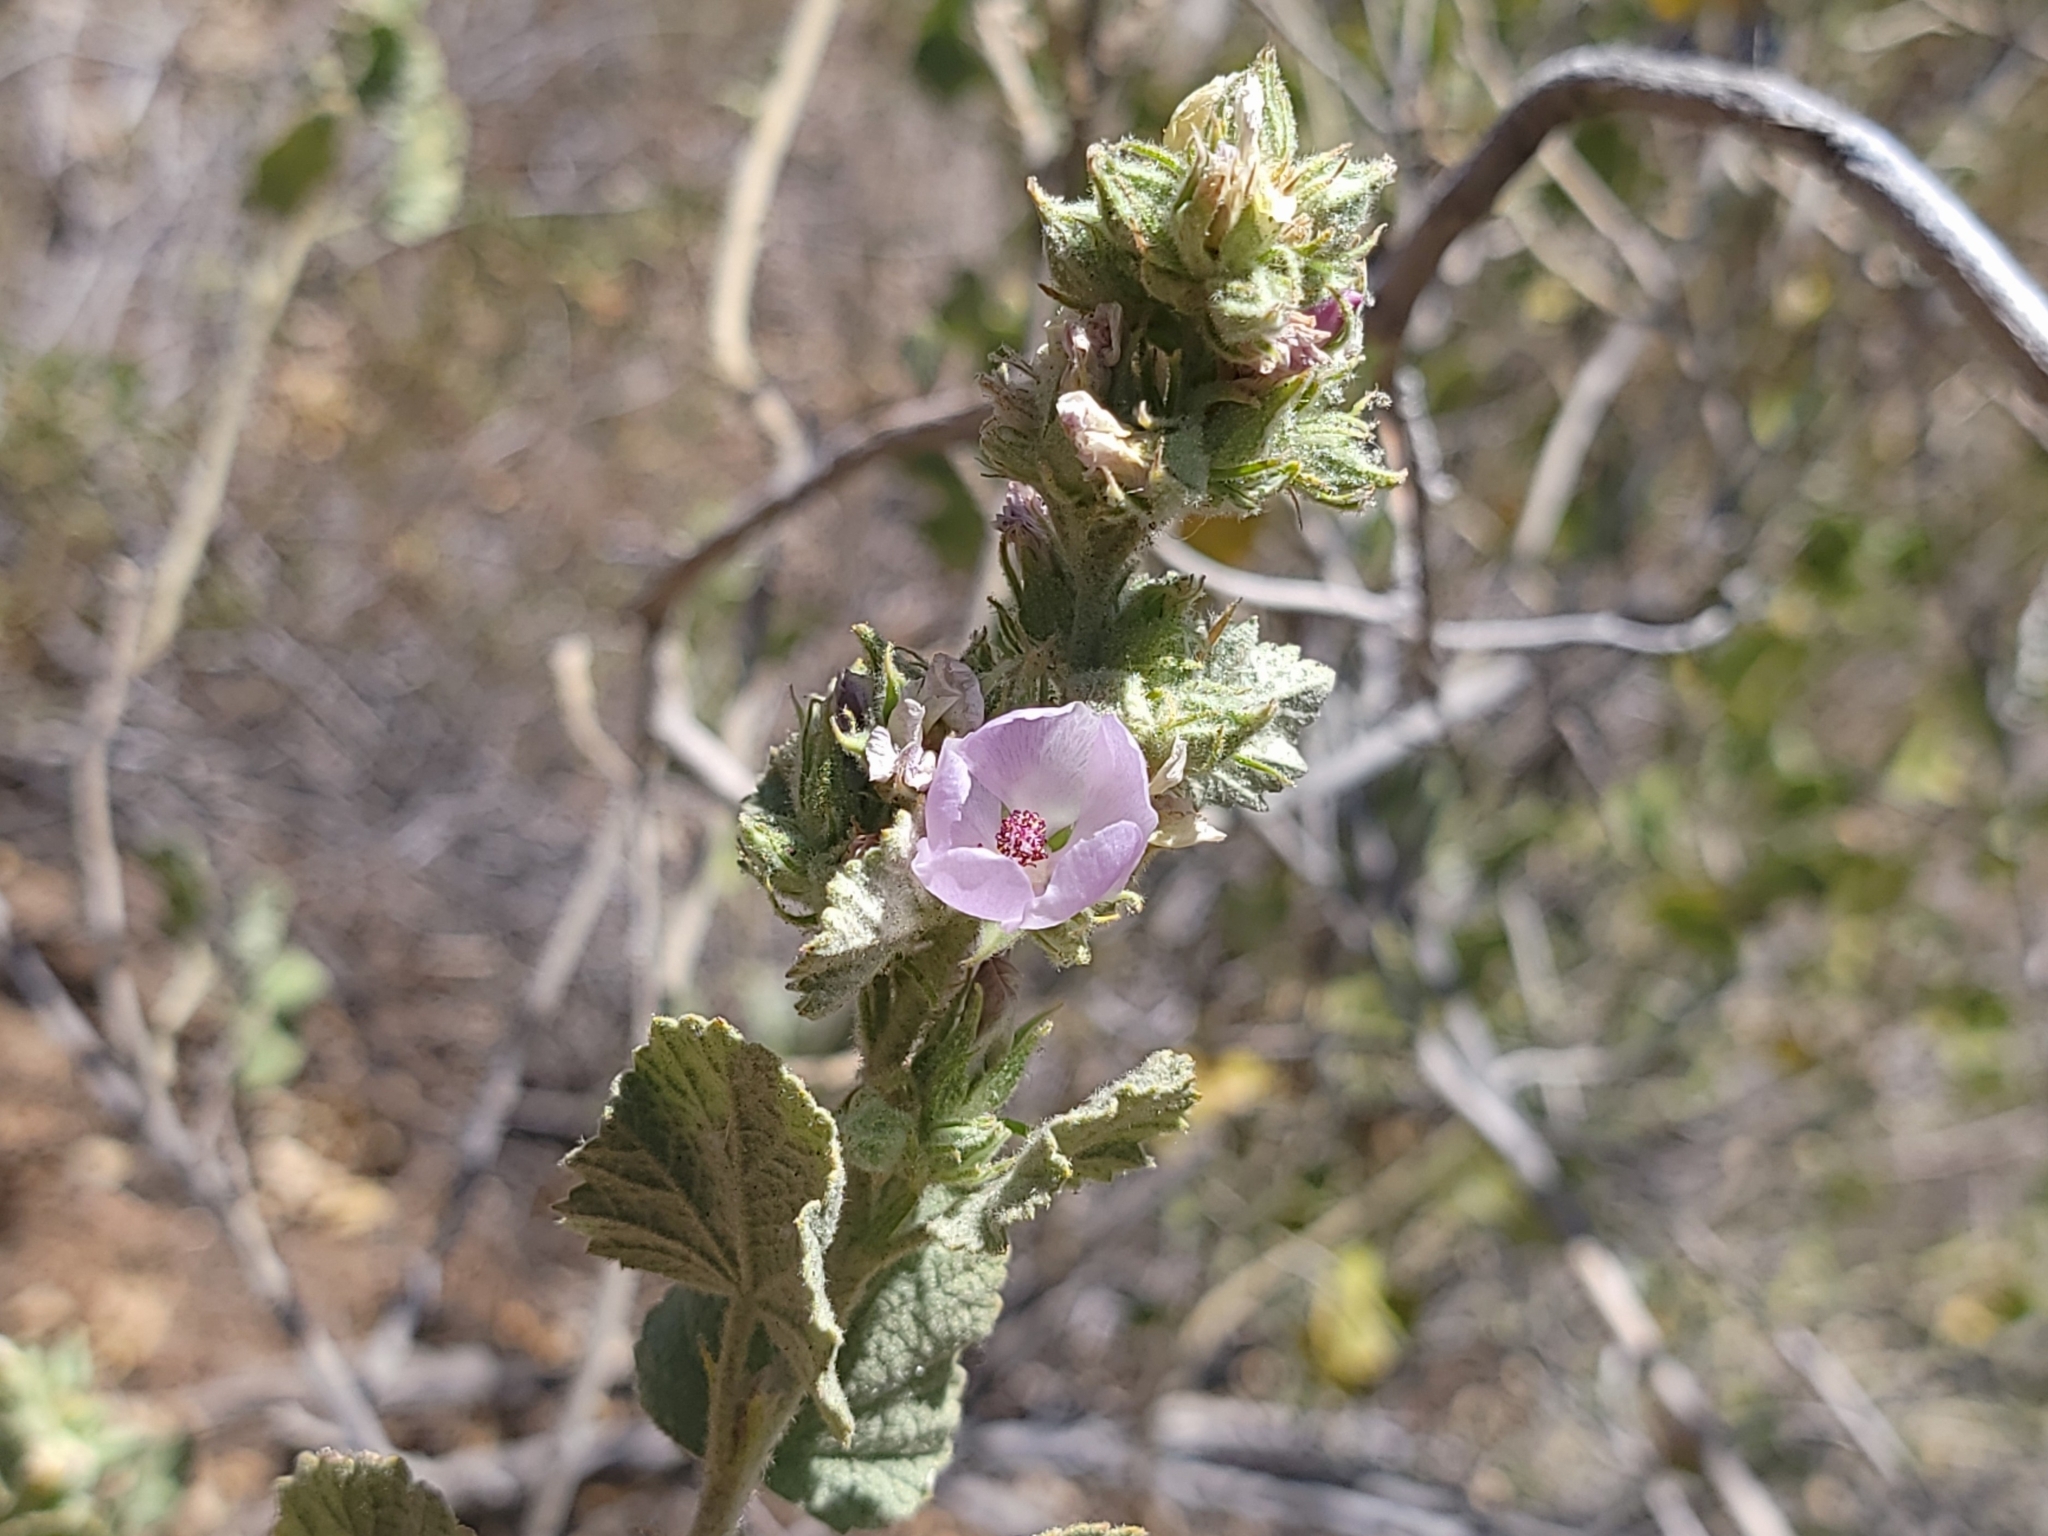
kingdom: Plantae
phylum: Tracheophyta
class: Magnoliopsida
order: Malvales
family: Malvaceae
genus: Malacothamnus
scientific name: Malacothamnus marrubioides
